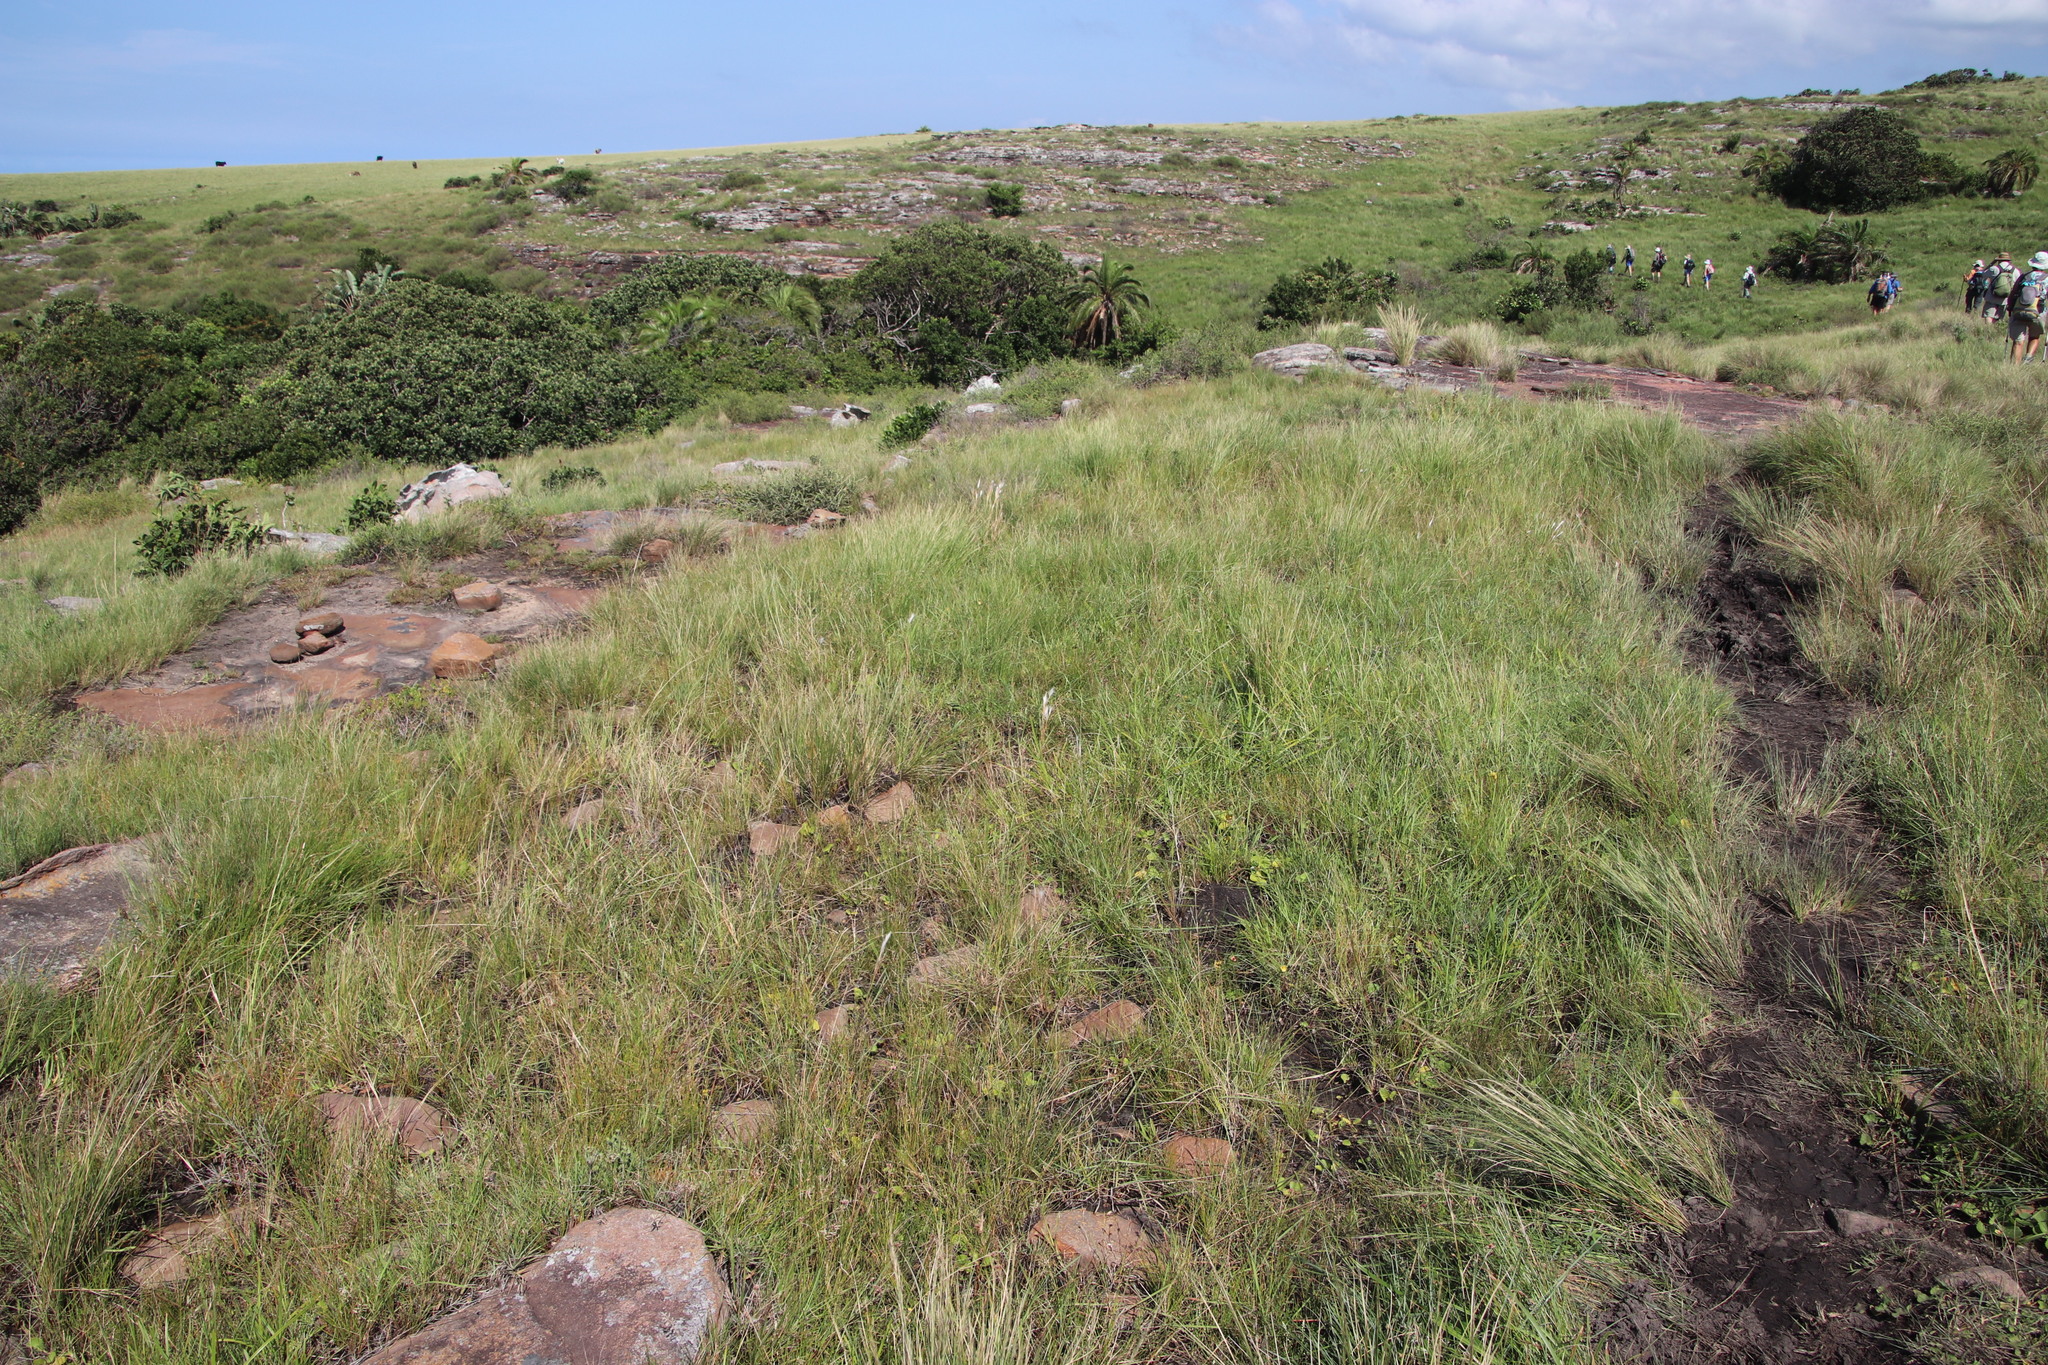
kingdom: Plantae
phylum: Tracheophyta
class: Liliopsida
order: Poales
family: Poaceae
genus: Andropogon
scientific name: Andropogon eucomus
